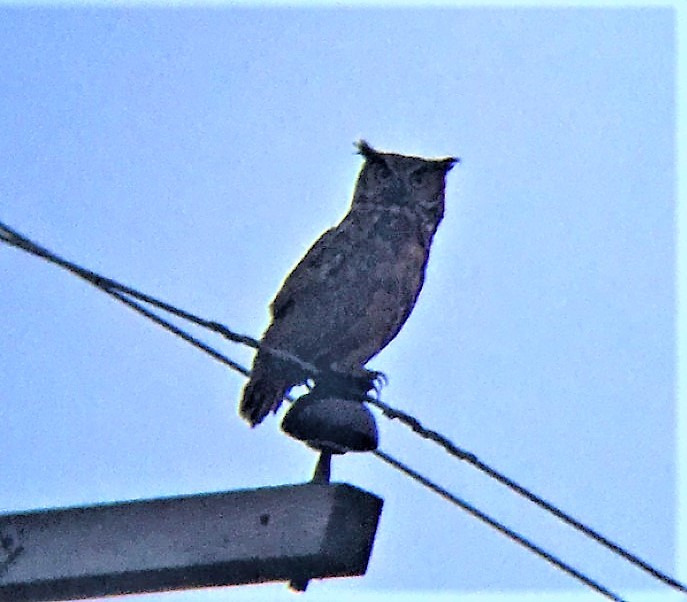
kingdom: Animalia
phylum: Chordata
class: Aves
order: Strigiformes
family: Strigidae
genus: Bubo
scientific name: Bubo virginianus
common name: Great horned owl
